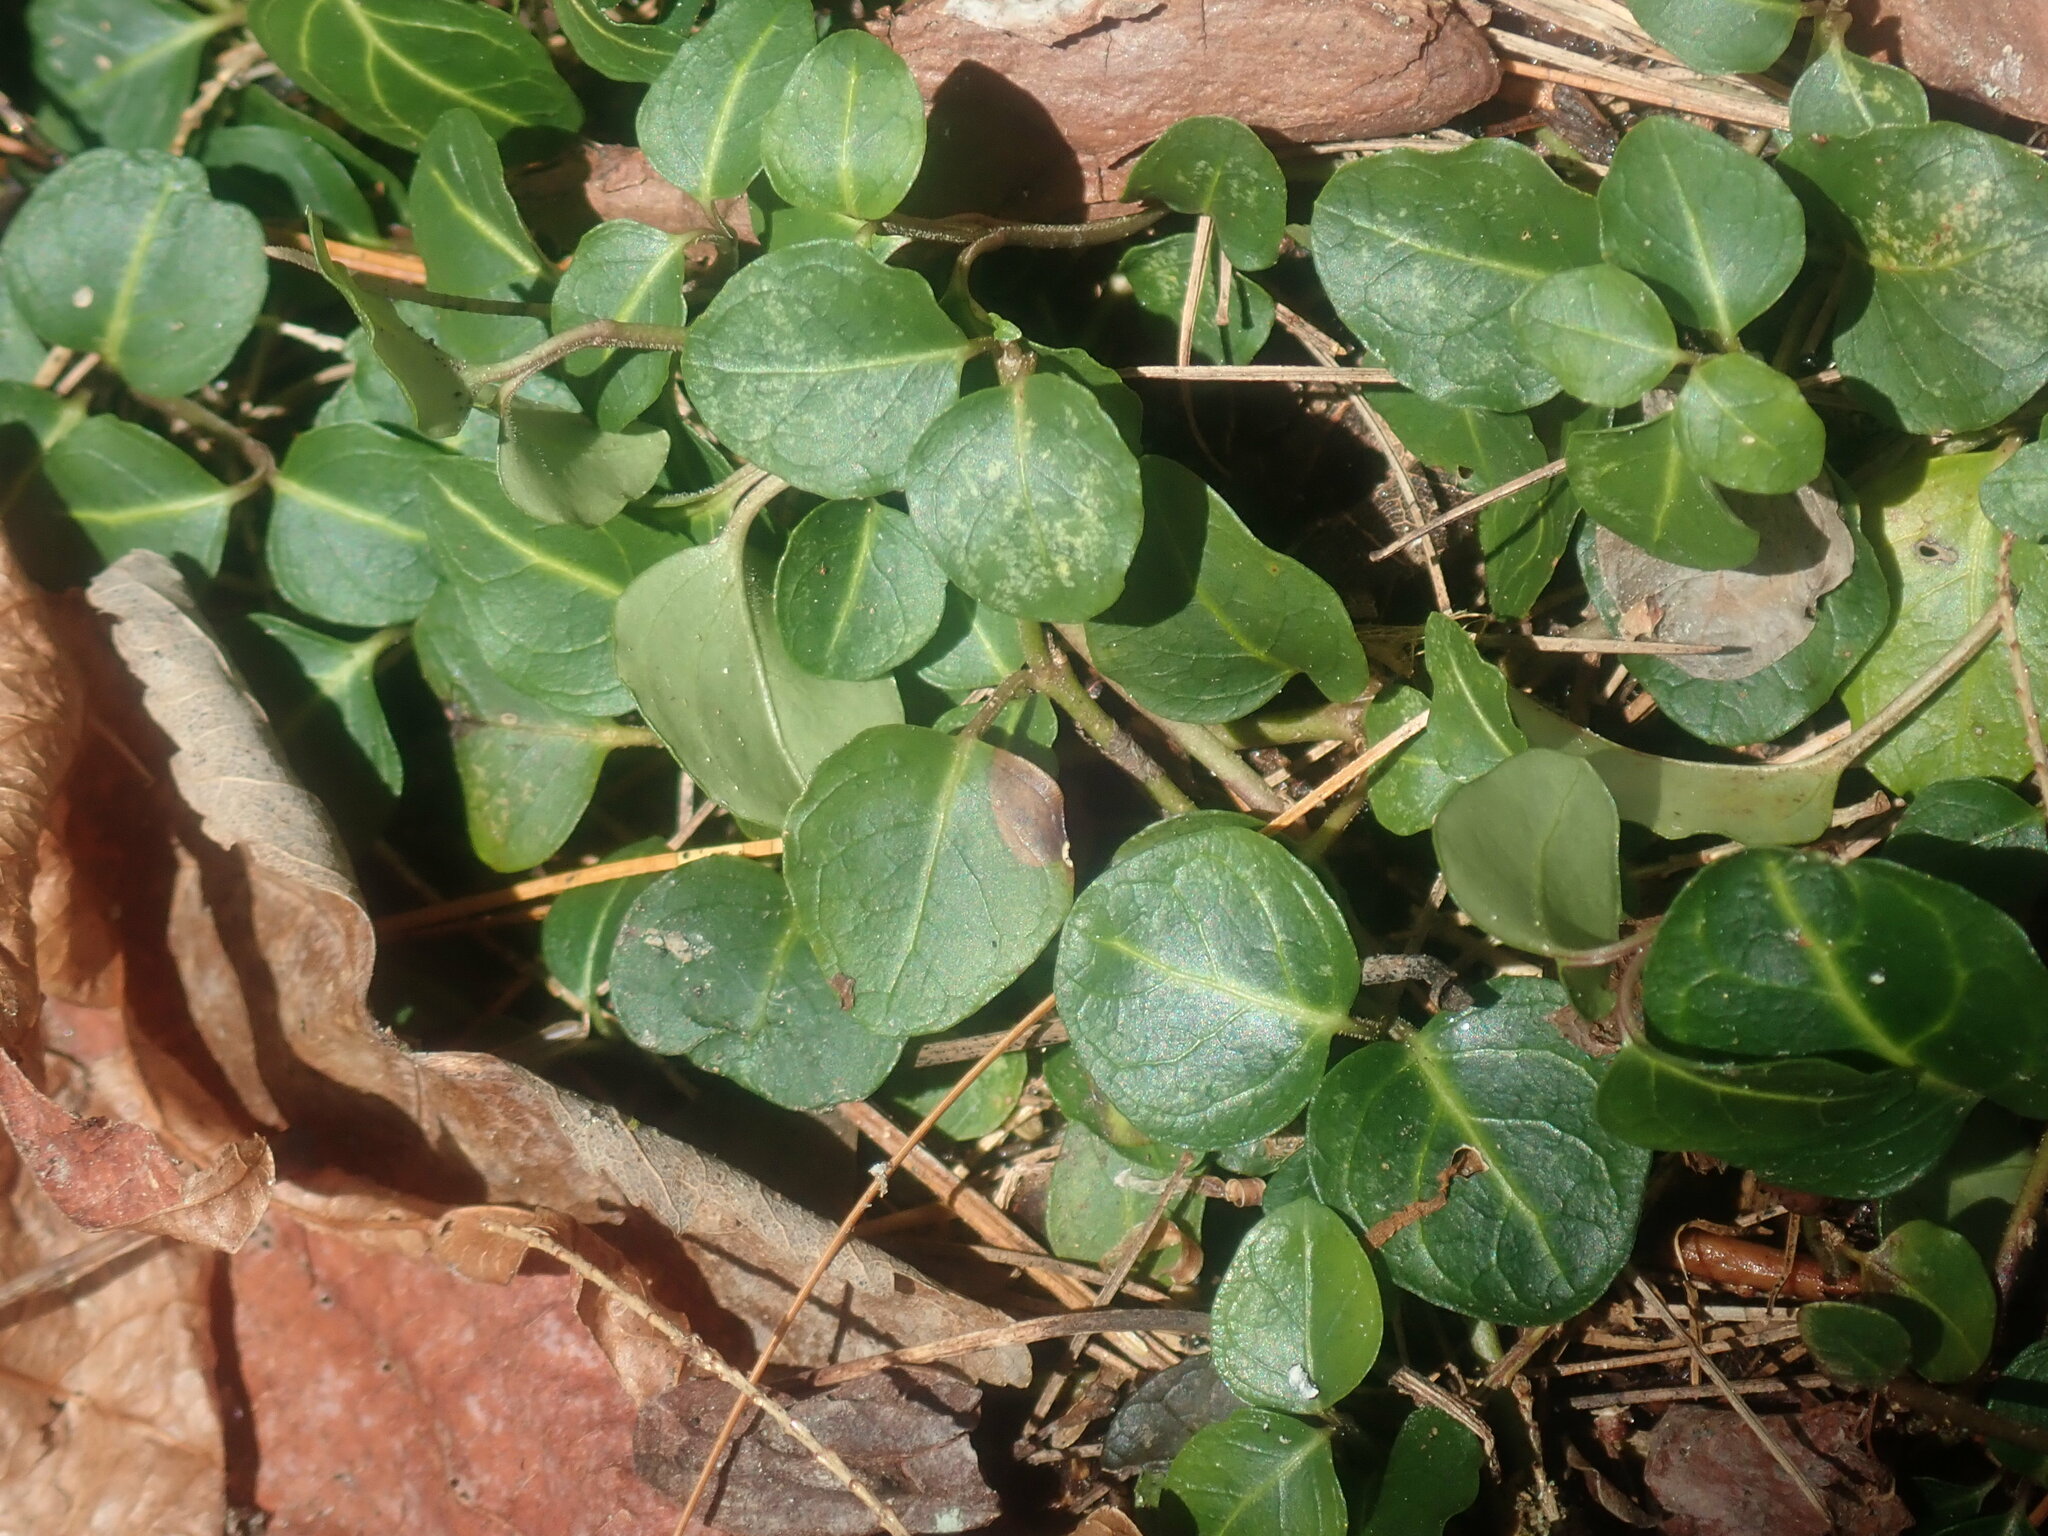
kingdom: Plantae
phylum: Tracheophyta
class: Magnoliopsida
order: Gentianales
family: Rubiaceae
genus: Mitchella
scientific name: Mitchella repens
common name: Partridge-berry
